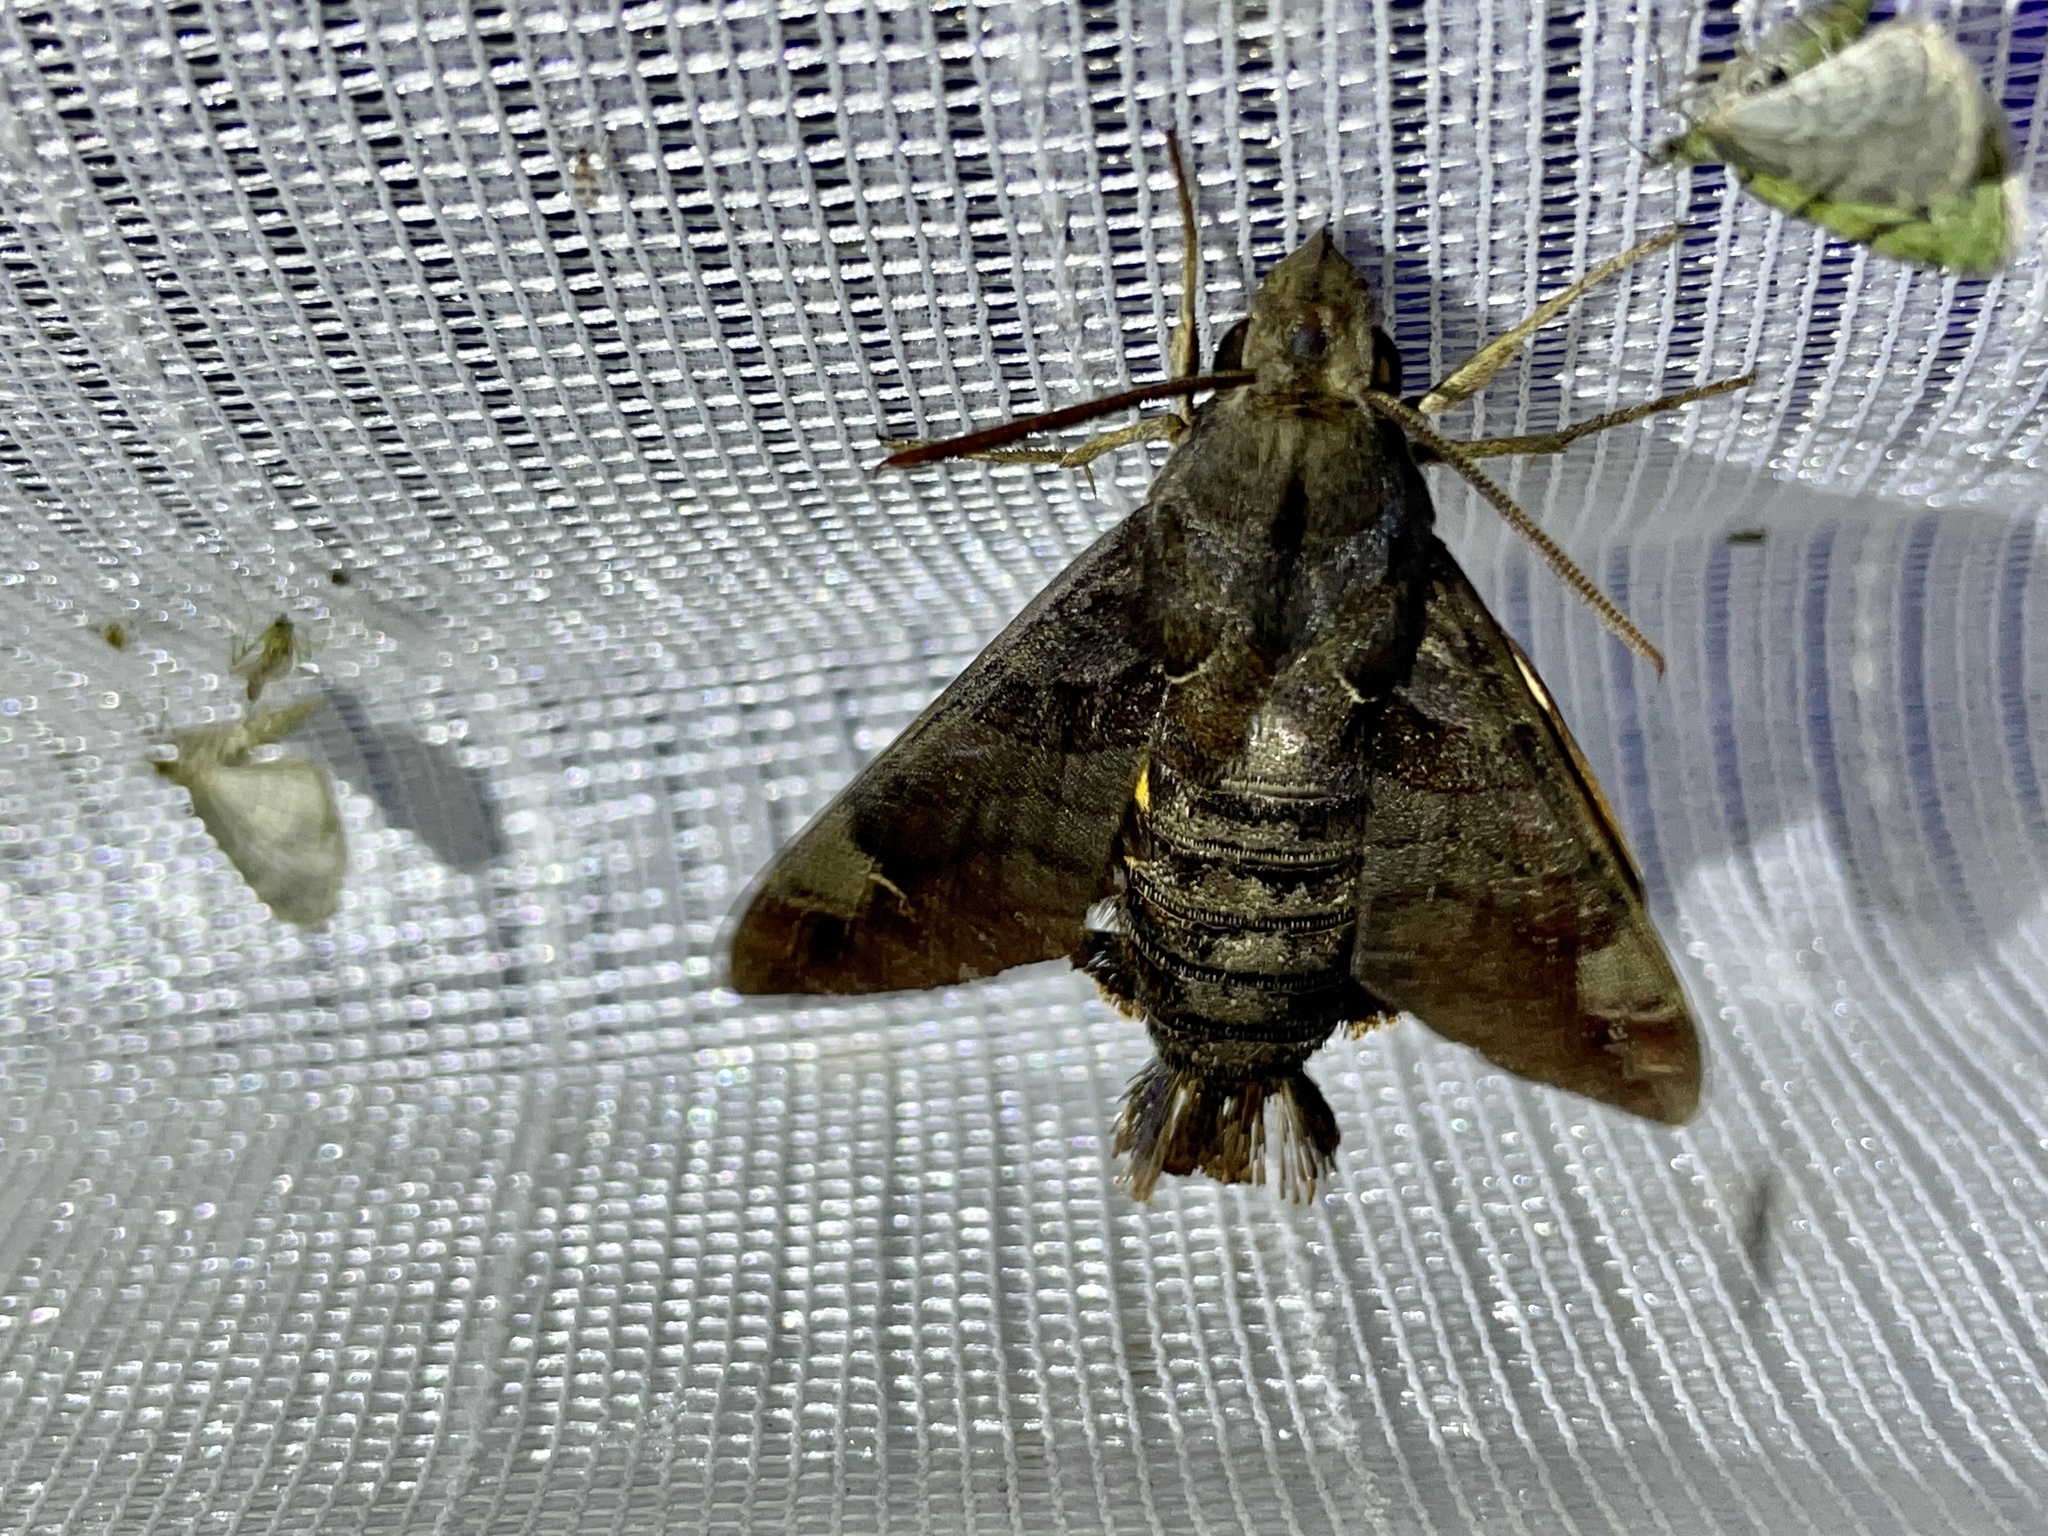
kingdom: Animalia
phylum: Arthropoda
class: Insecta
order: Lepidoptera
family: Sphingidae
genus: Macroglossum
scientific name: Macroglossum saga
